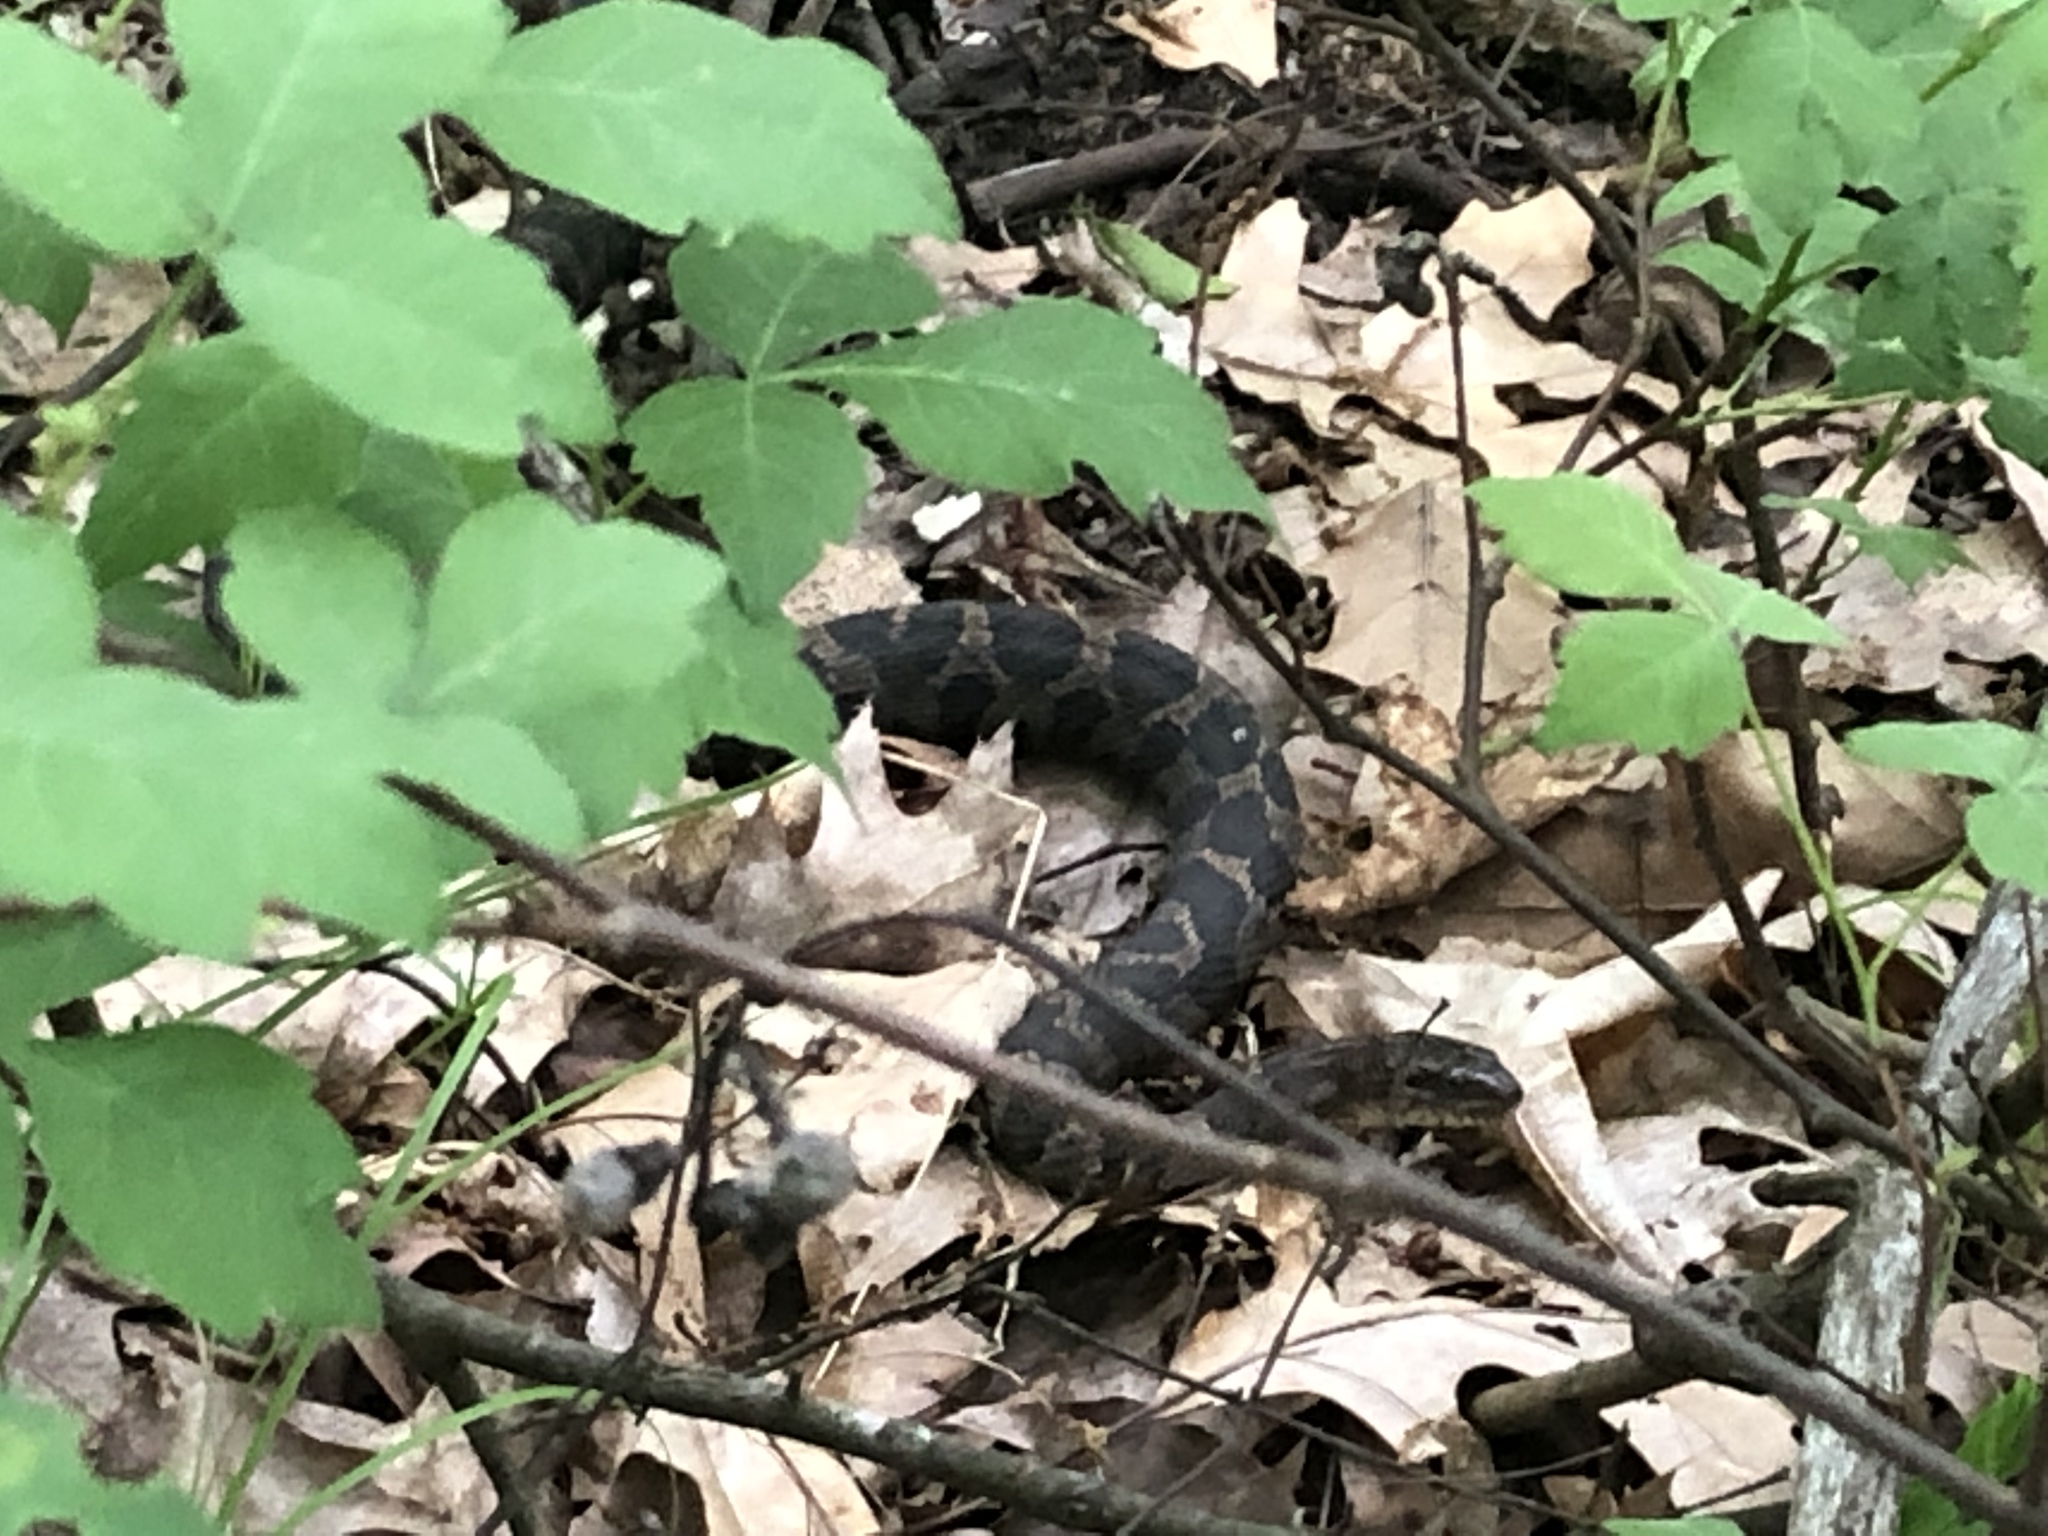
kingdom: Animalia
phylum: Chordata
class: Squamata
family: Colubridae
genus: Nerodia
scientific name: Nerodia sipedon
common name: Northern water snake
